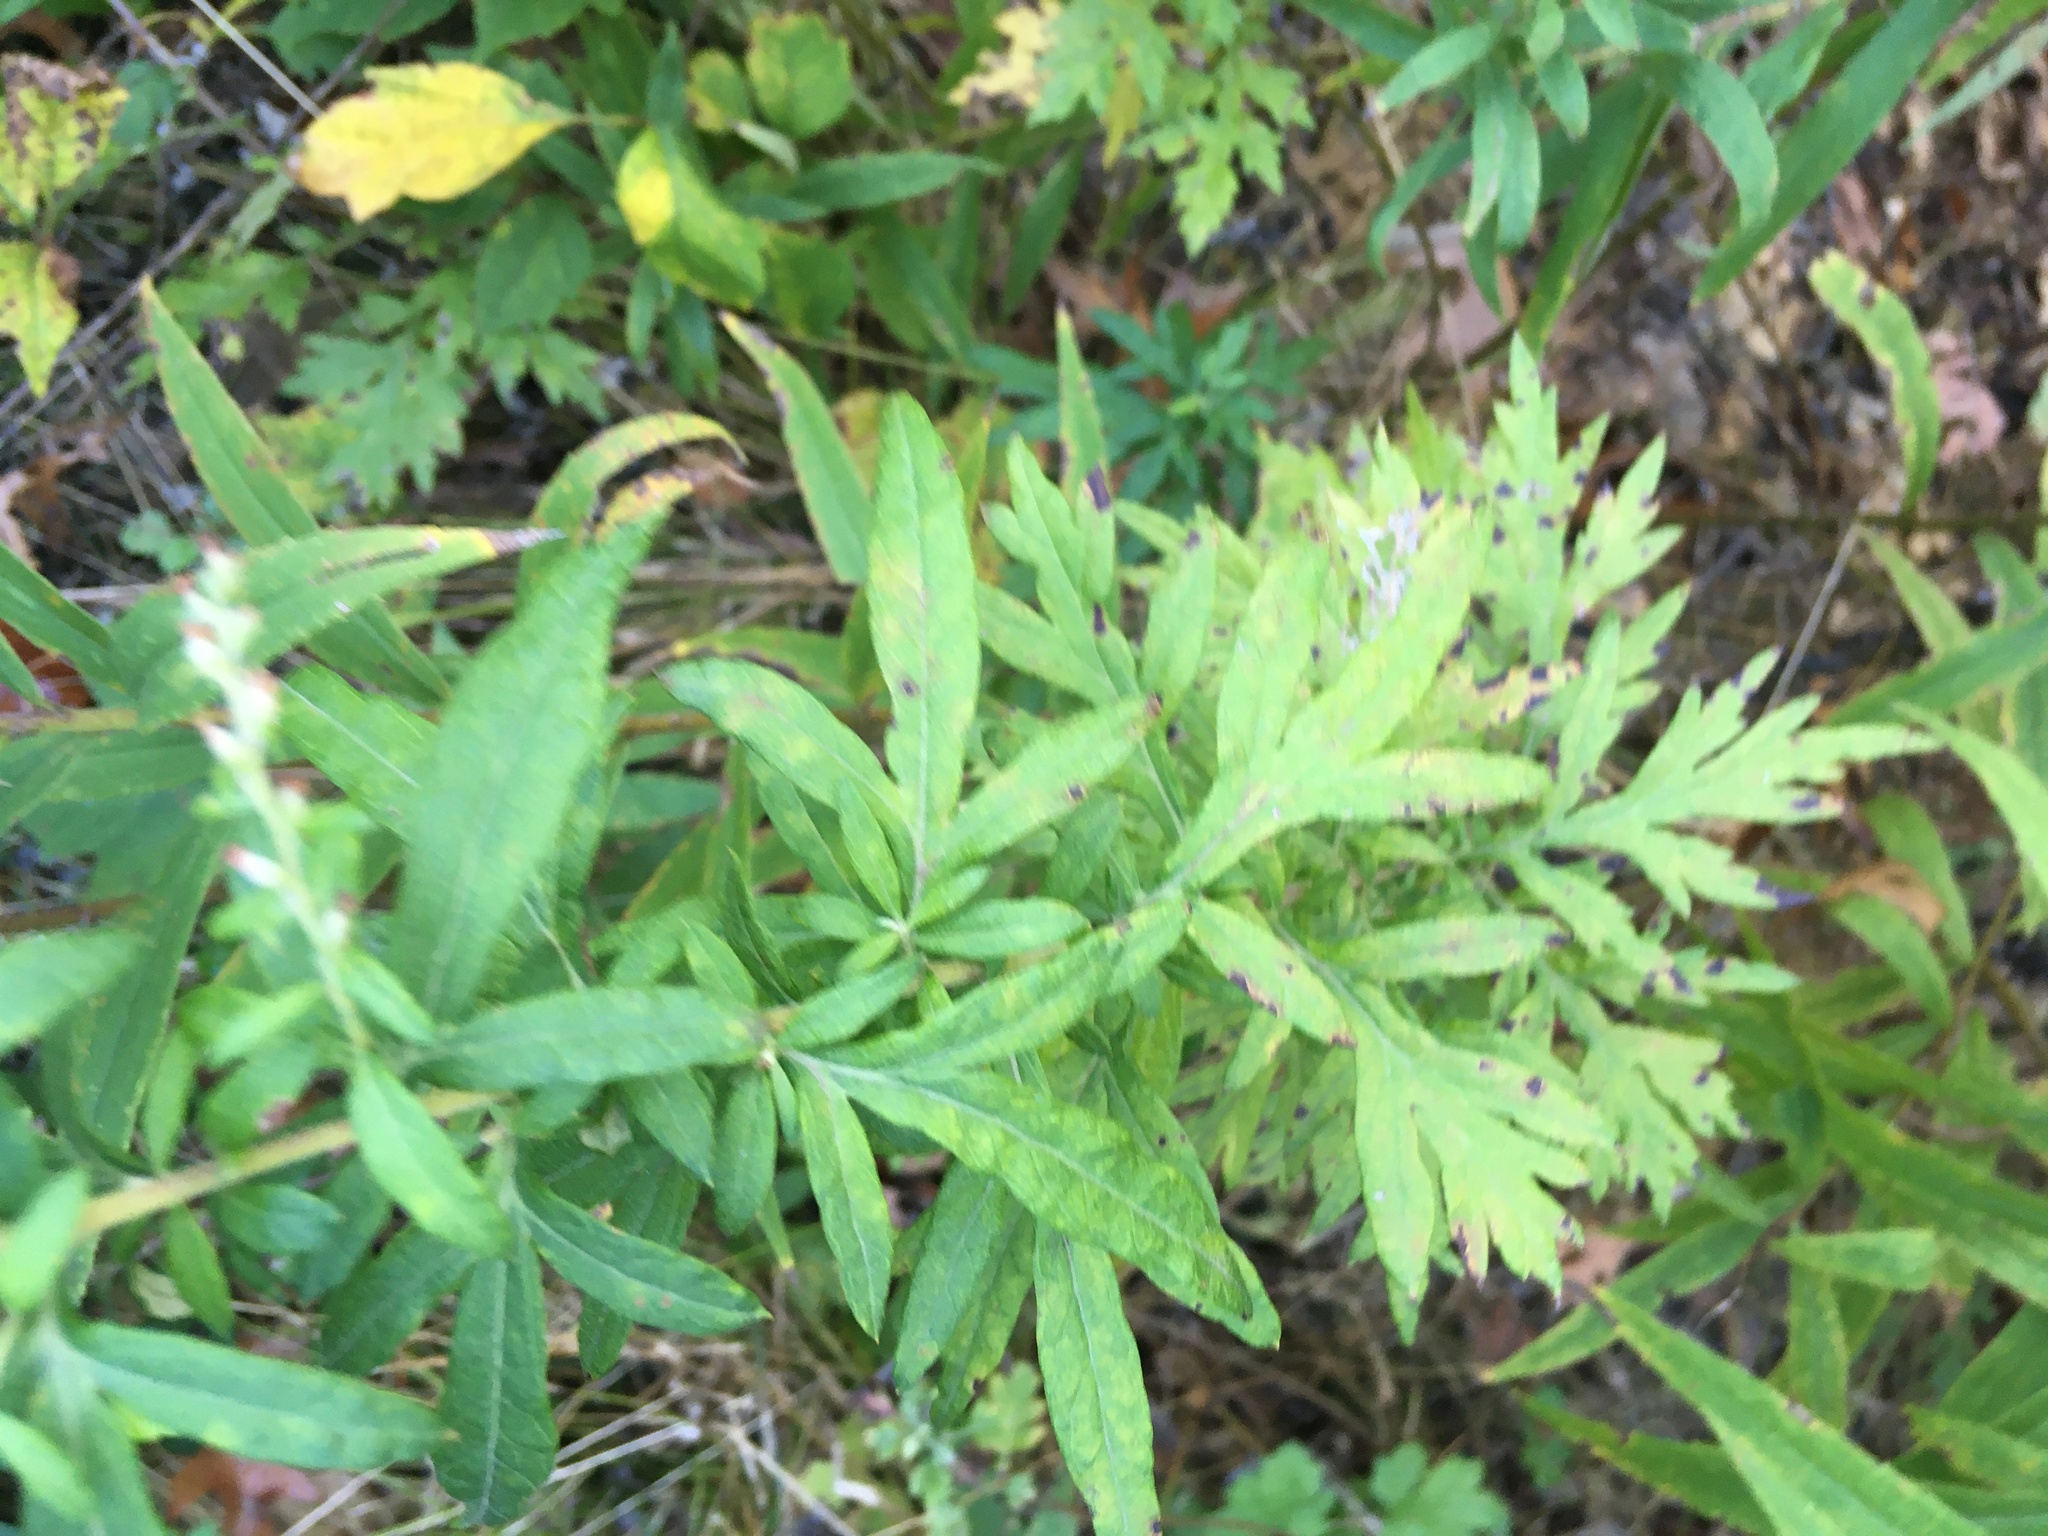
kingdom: Plantae
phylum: Tracheophyta
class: Magnoliopsida
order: Asterales
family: Asteraceae
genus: Artemisia
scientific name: Artemisia vulgaris
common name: Mugwort
